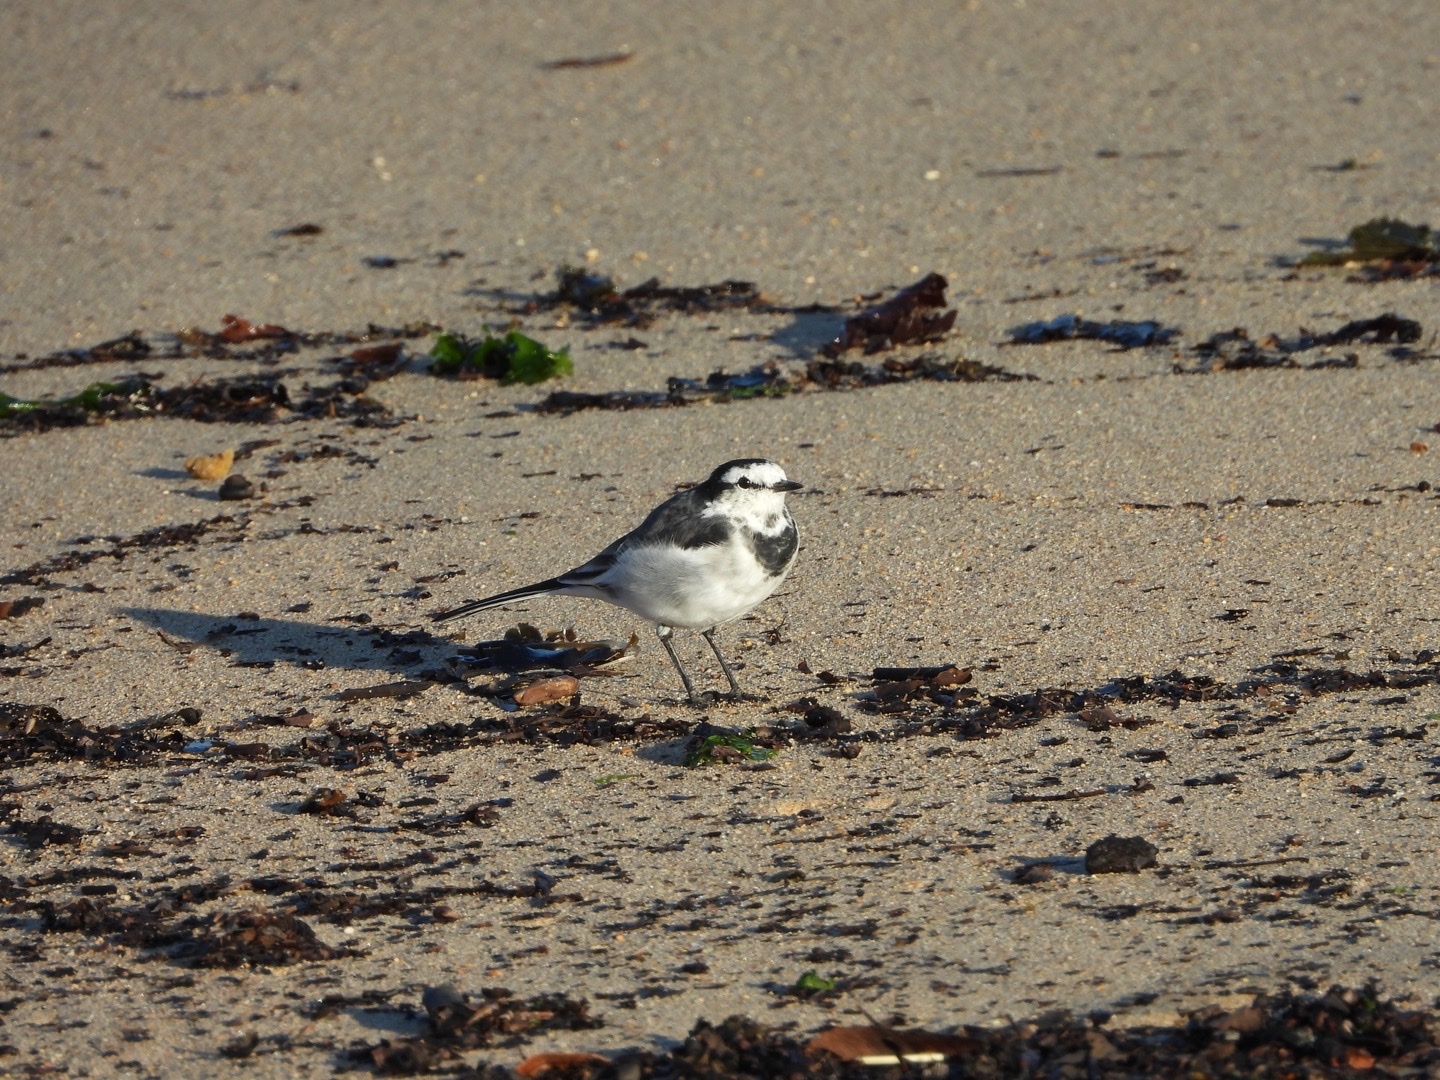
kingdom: Animalia
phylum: Chordata
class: Aves
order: Passeriformes
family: Motacillidae
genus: Motacilla
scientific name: Motacilla alba
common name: White wagtail
